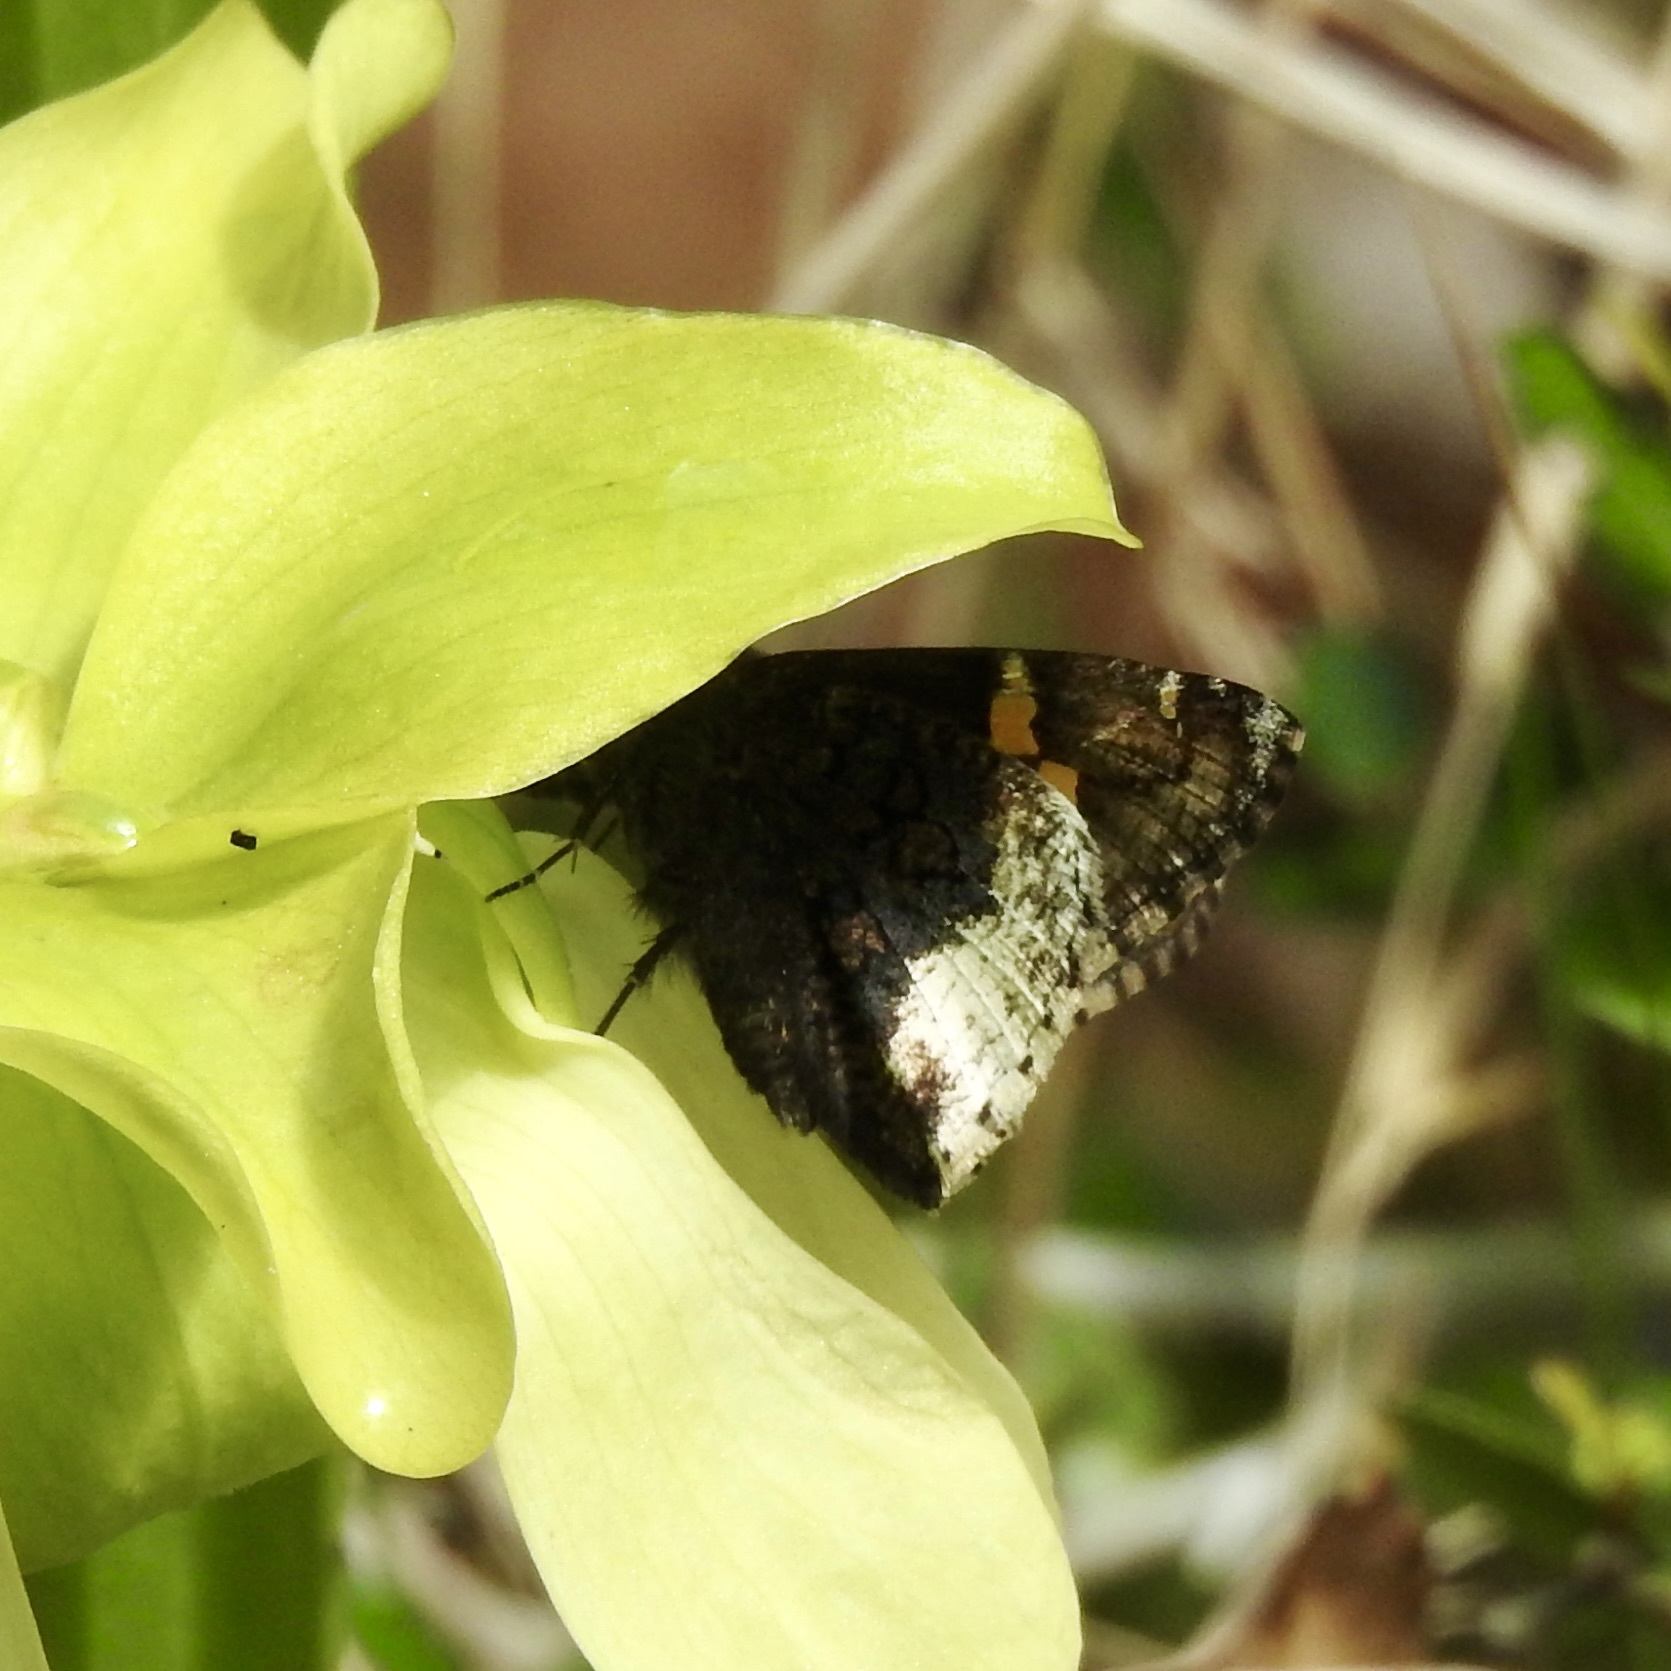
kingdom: Animalia
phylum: Arthropoda
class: Insecta
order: Lepidoptera
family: Hesperiidae
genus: Thorybes
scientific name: Thorybes lyciades
